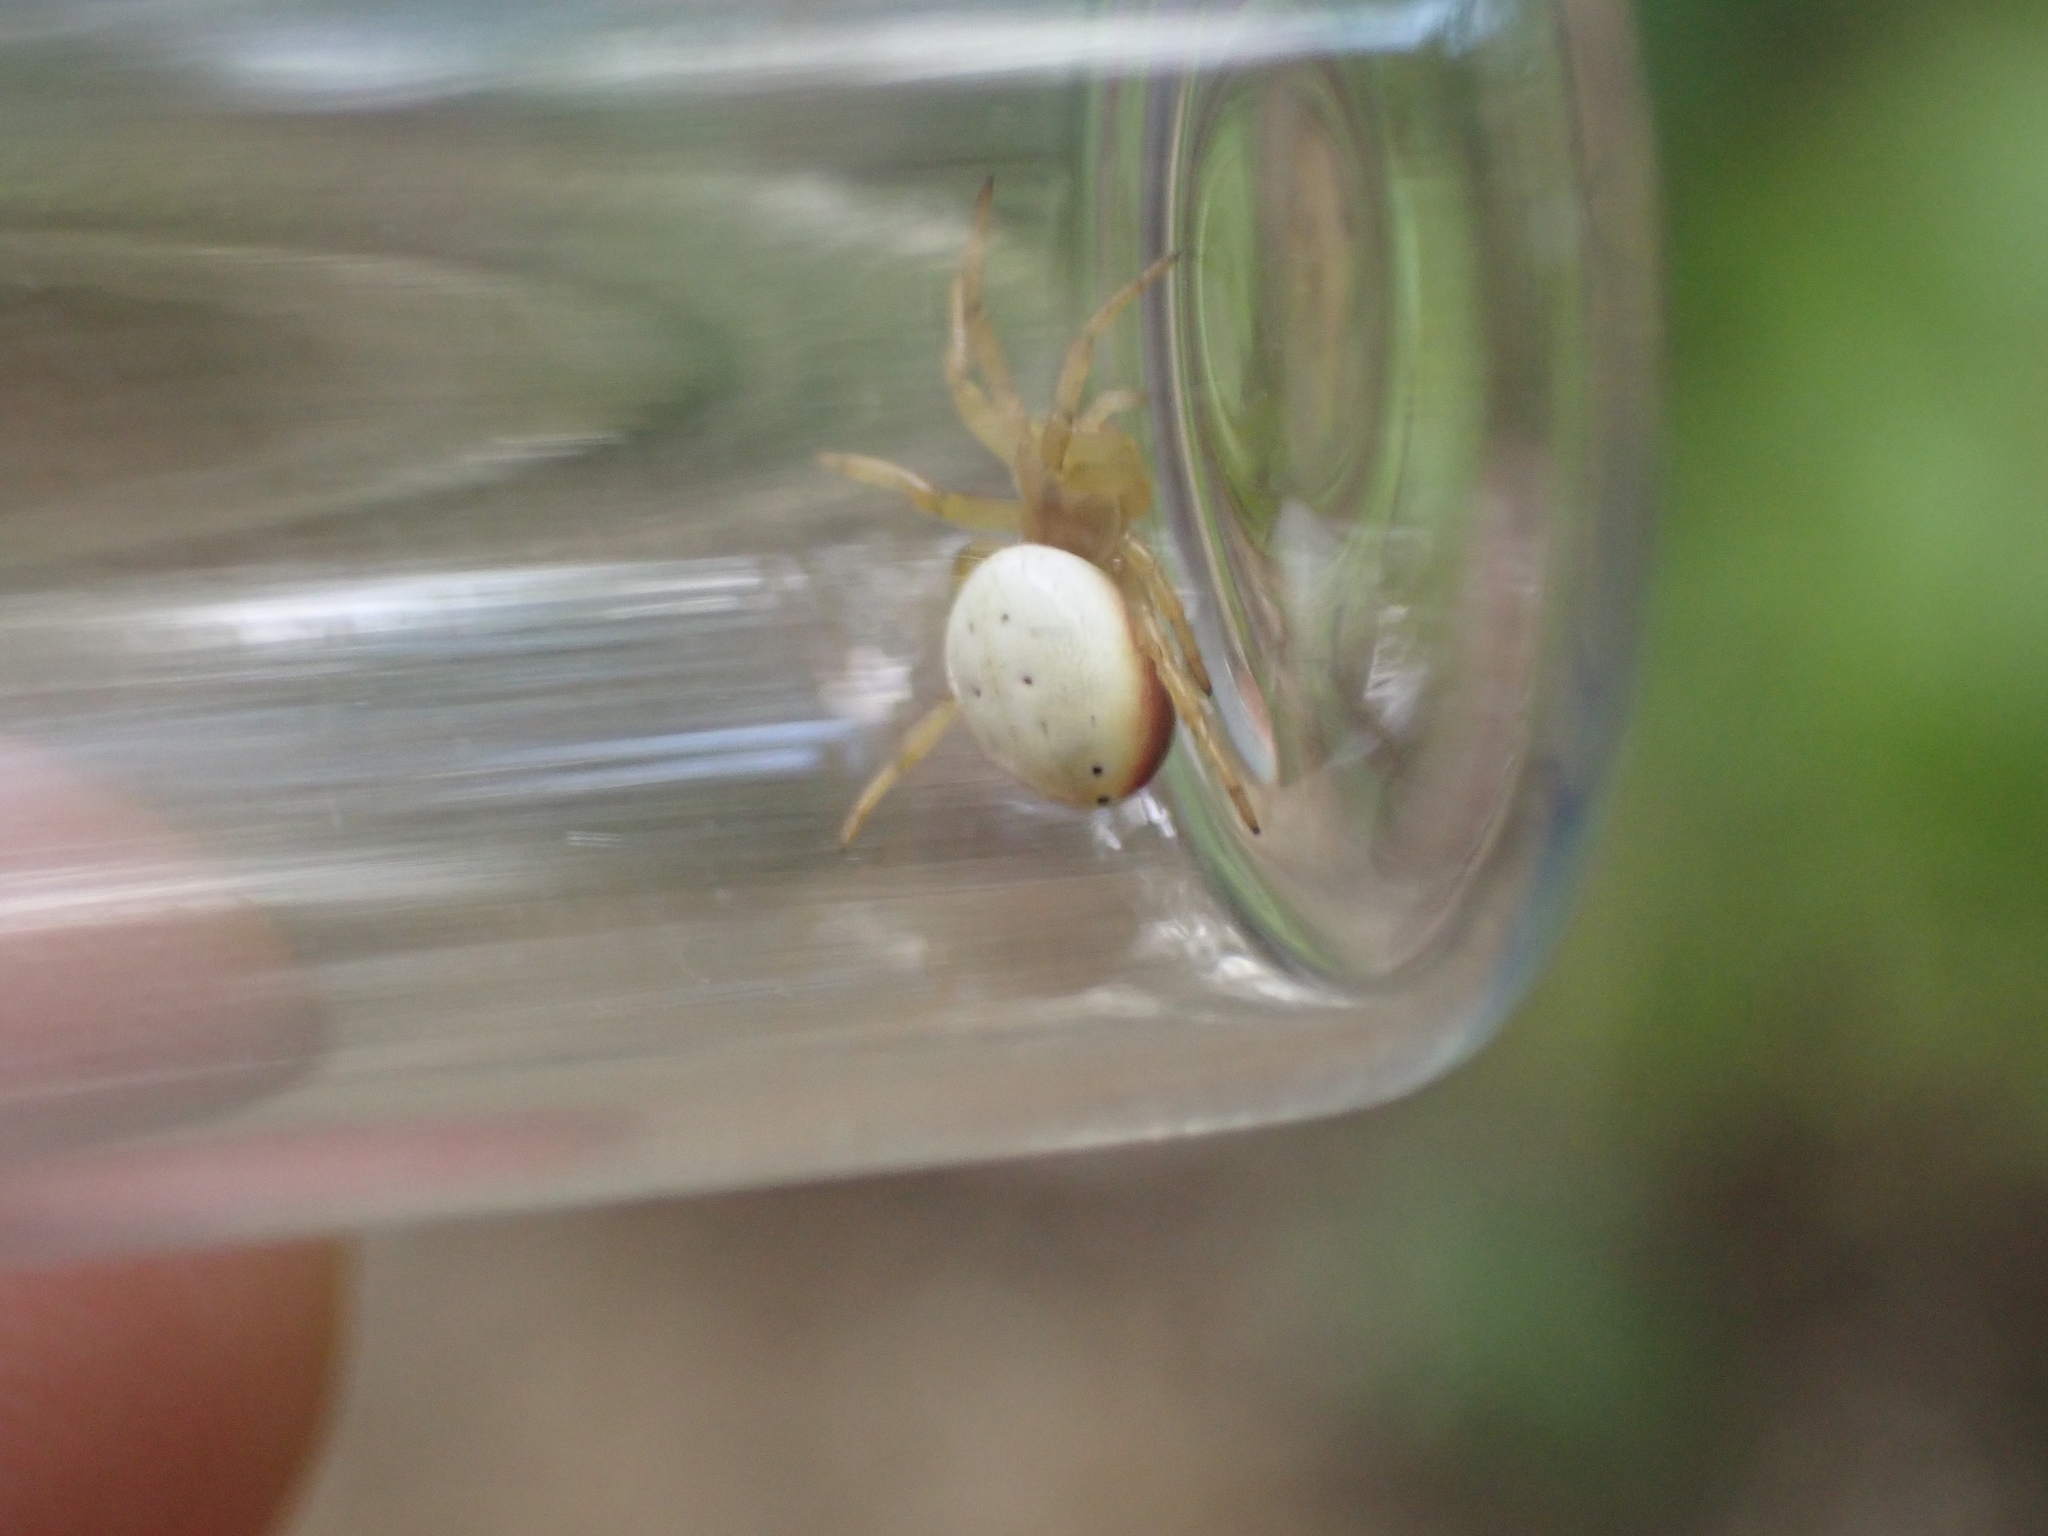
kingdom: Animalia
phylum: Arthropoda
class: Arachnida
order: Araneae
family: Araneidae
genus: Araniella
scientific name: Araniella displicata
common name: Sixspotted orb weaver
